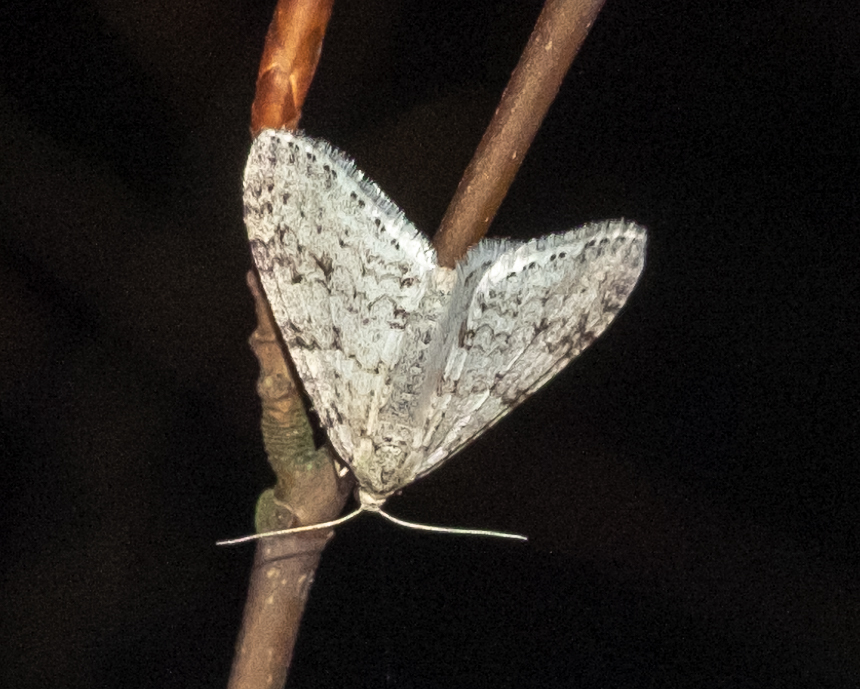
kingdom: Animalia
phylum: Arthropoda
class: Insecta
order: Lepidoptera
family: Geometridae
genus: Trichopteryx
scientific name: Trichopteryx carpinata
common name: Early tooth-striped
